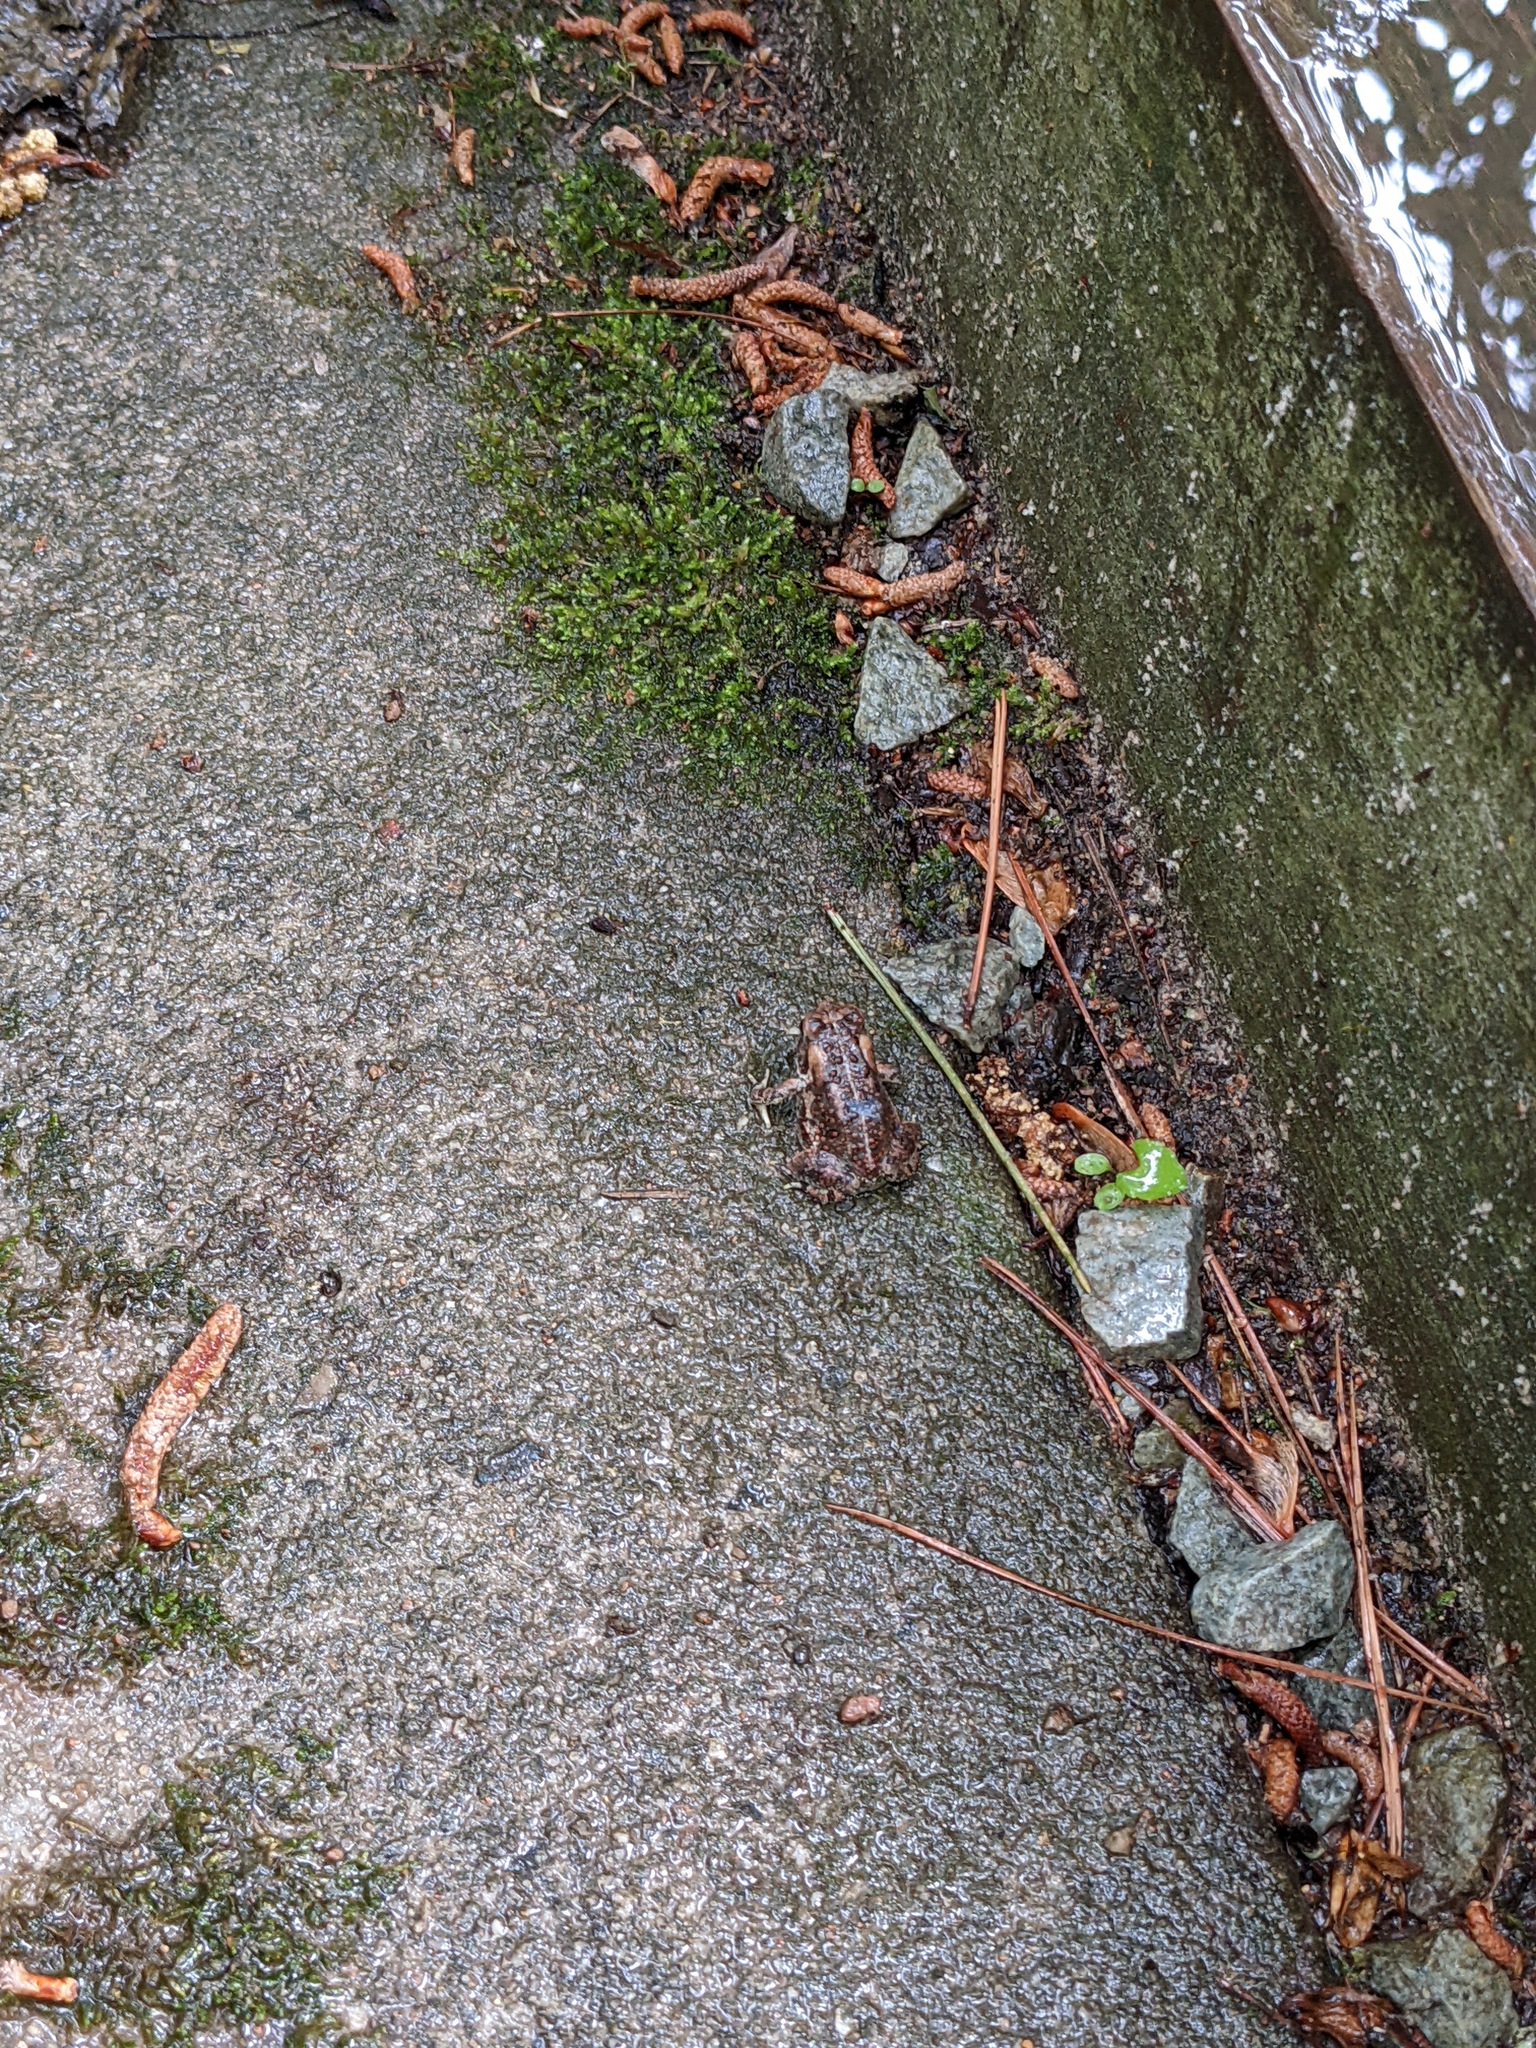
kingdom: Animalia
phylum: Chordata
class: Amphibia
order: Anura
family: Bufonidae
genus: Anaxyrus
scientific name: Anaxyrus fowleri
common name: Fowler's toad
